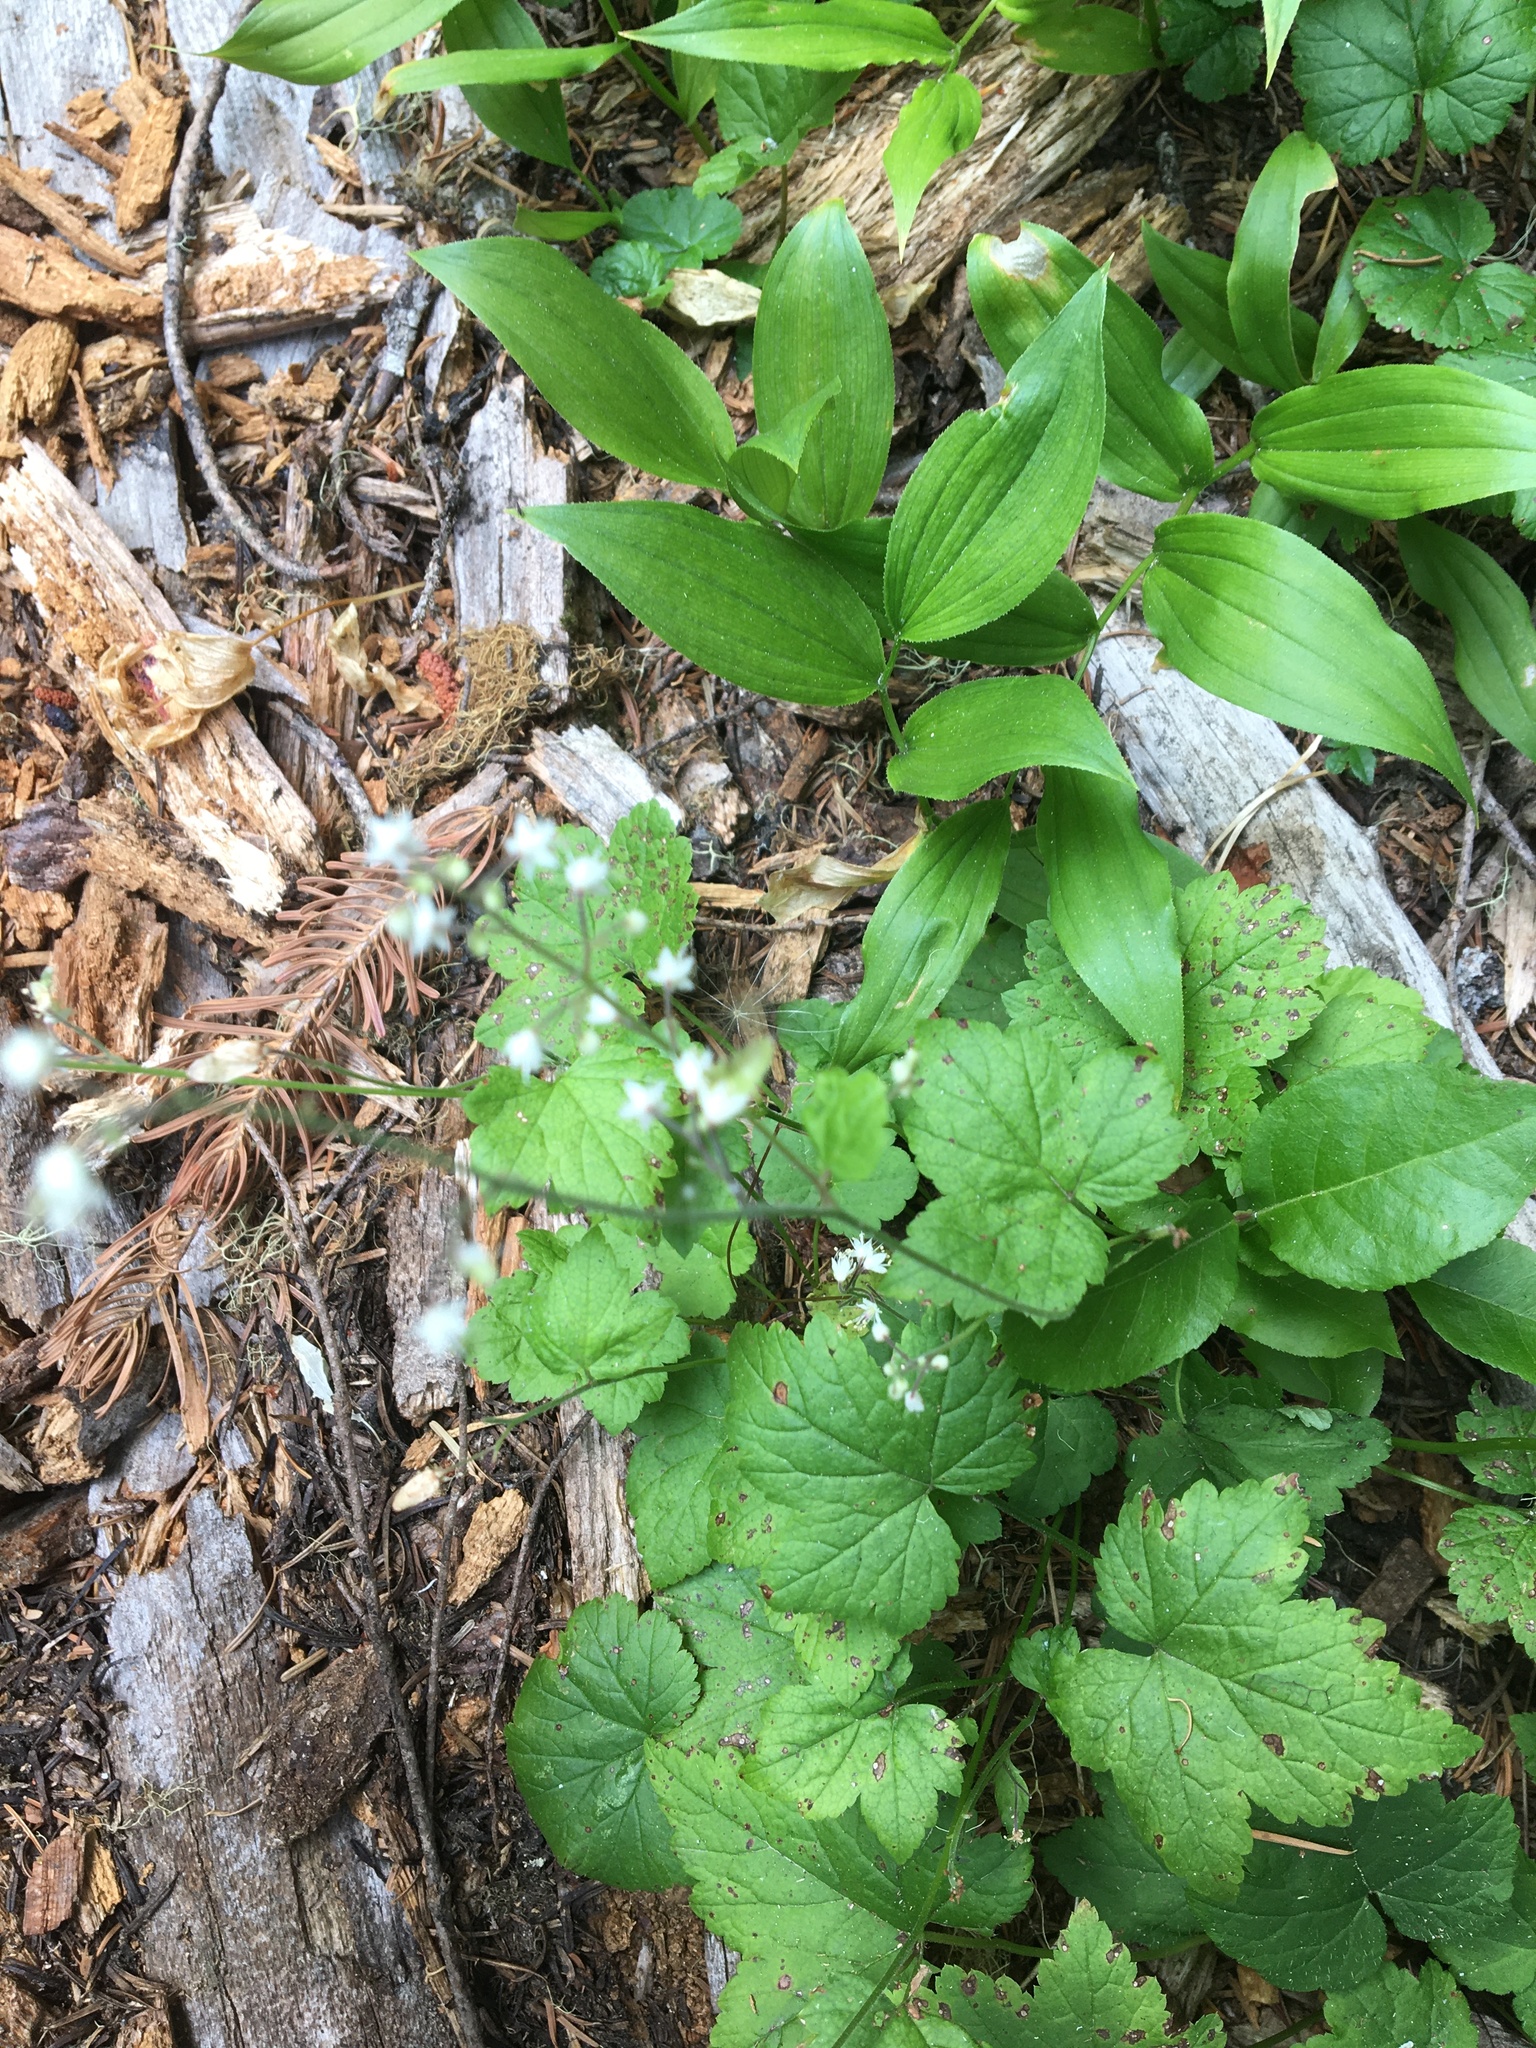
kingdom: Plantae
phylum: Tracheophyta
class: Magnoliopsida
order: Saxifragales
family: Saxifragaceae
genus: Tiarella
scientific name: Tiarella trifoliata
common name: Sugar-scoop
